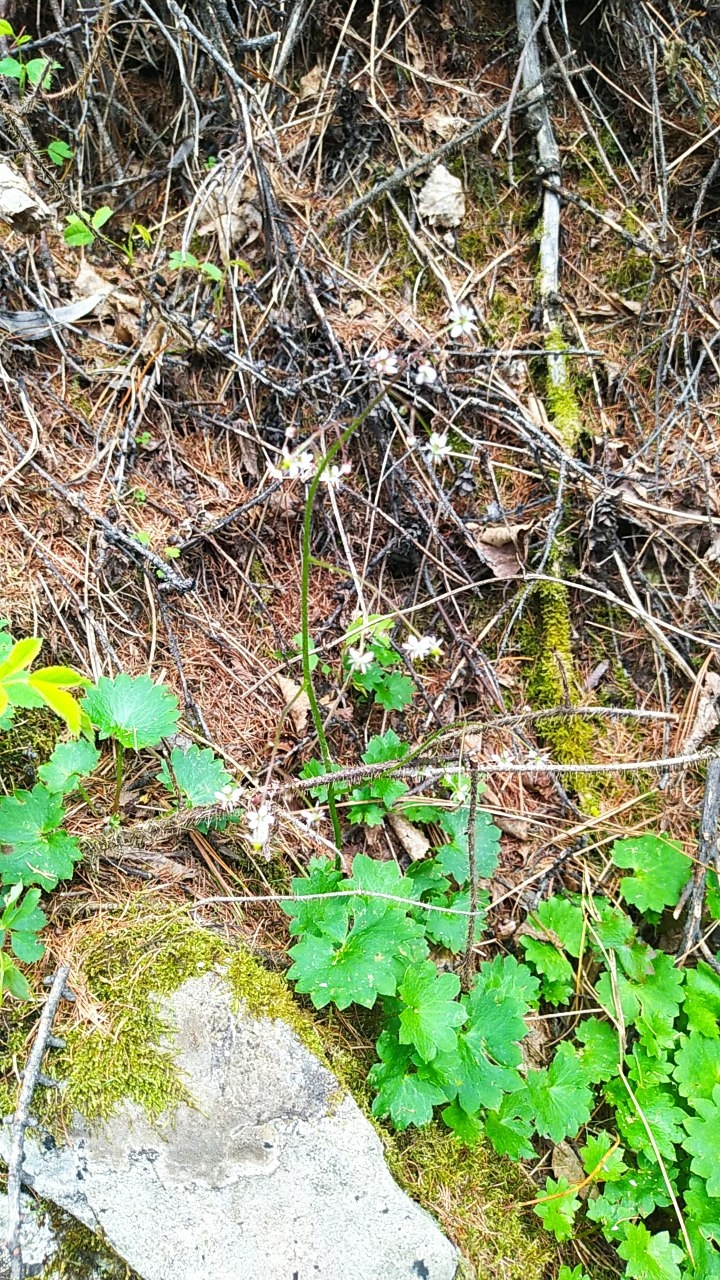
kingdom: Plantae
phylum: Tracheophyta
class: Magnoliopsida
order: Saxifragales
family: Saxifragaceae
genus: Micranthes
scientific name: Micranthes nelsoniana
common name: Nelson's saxifrage
